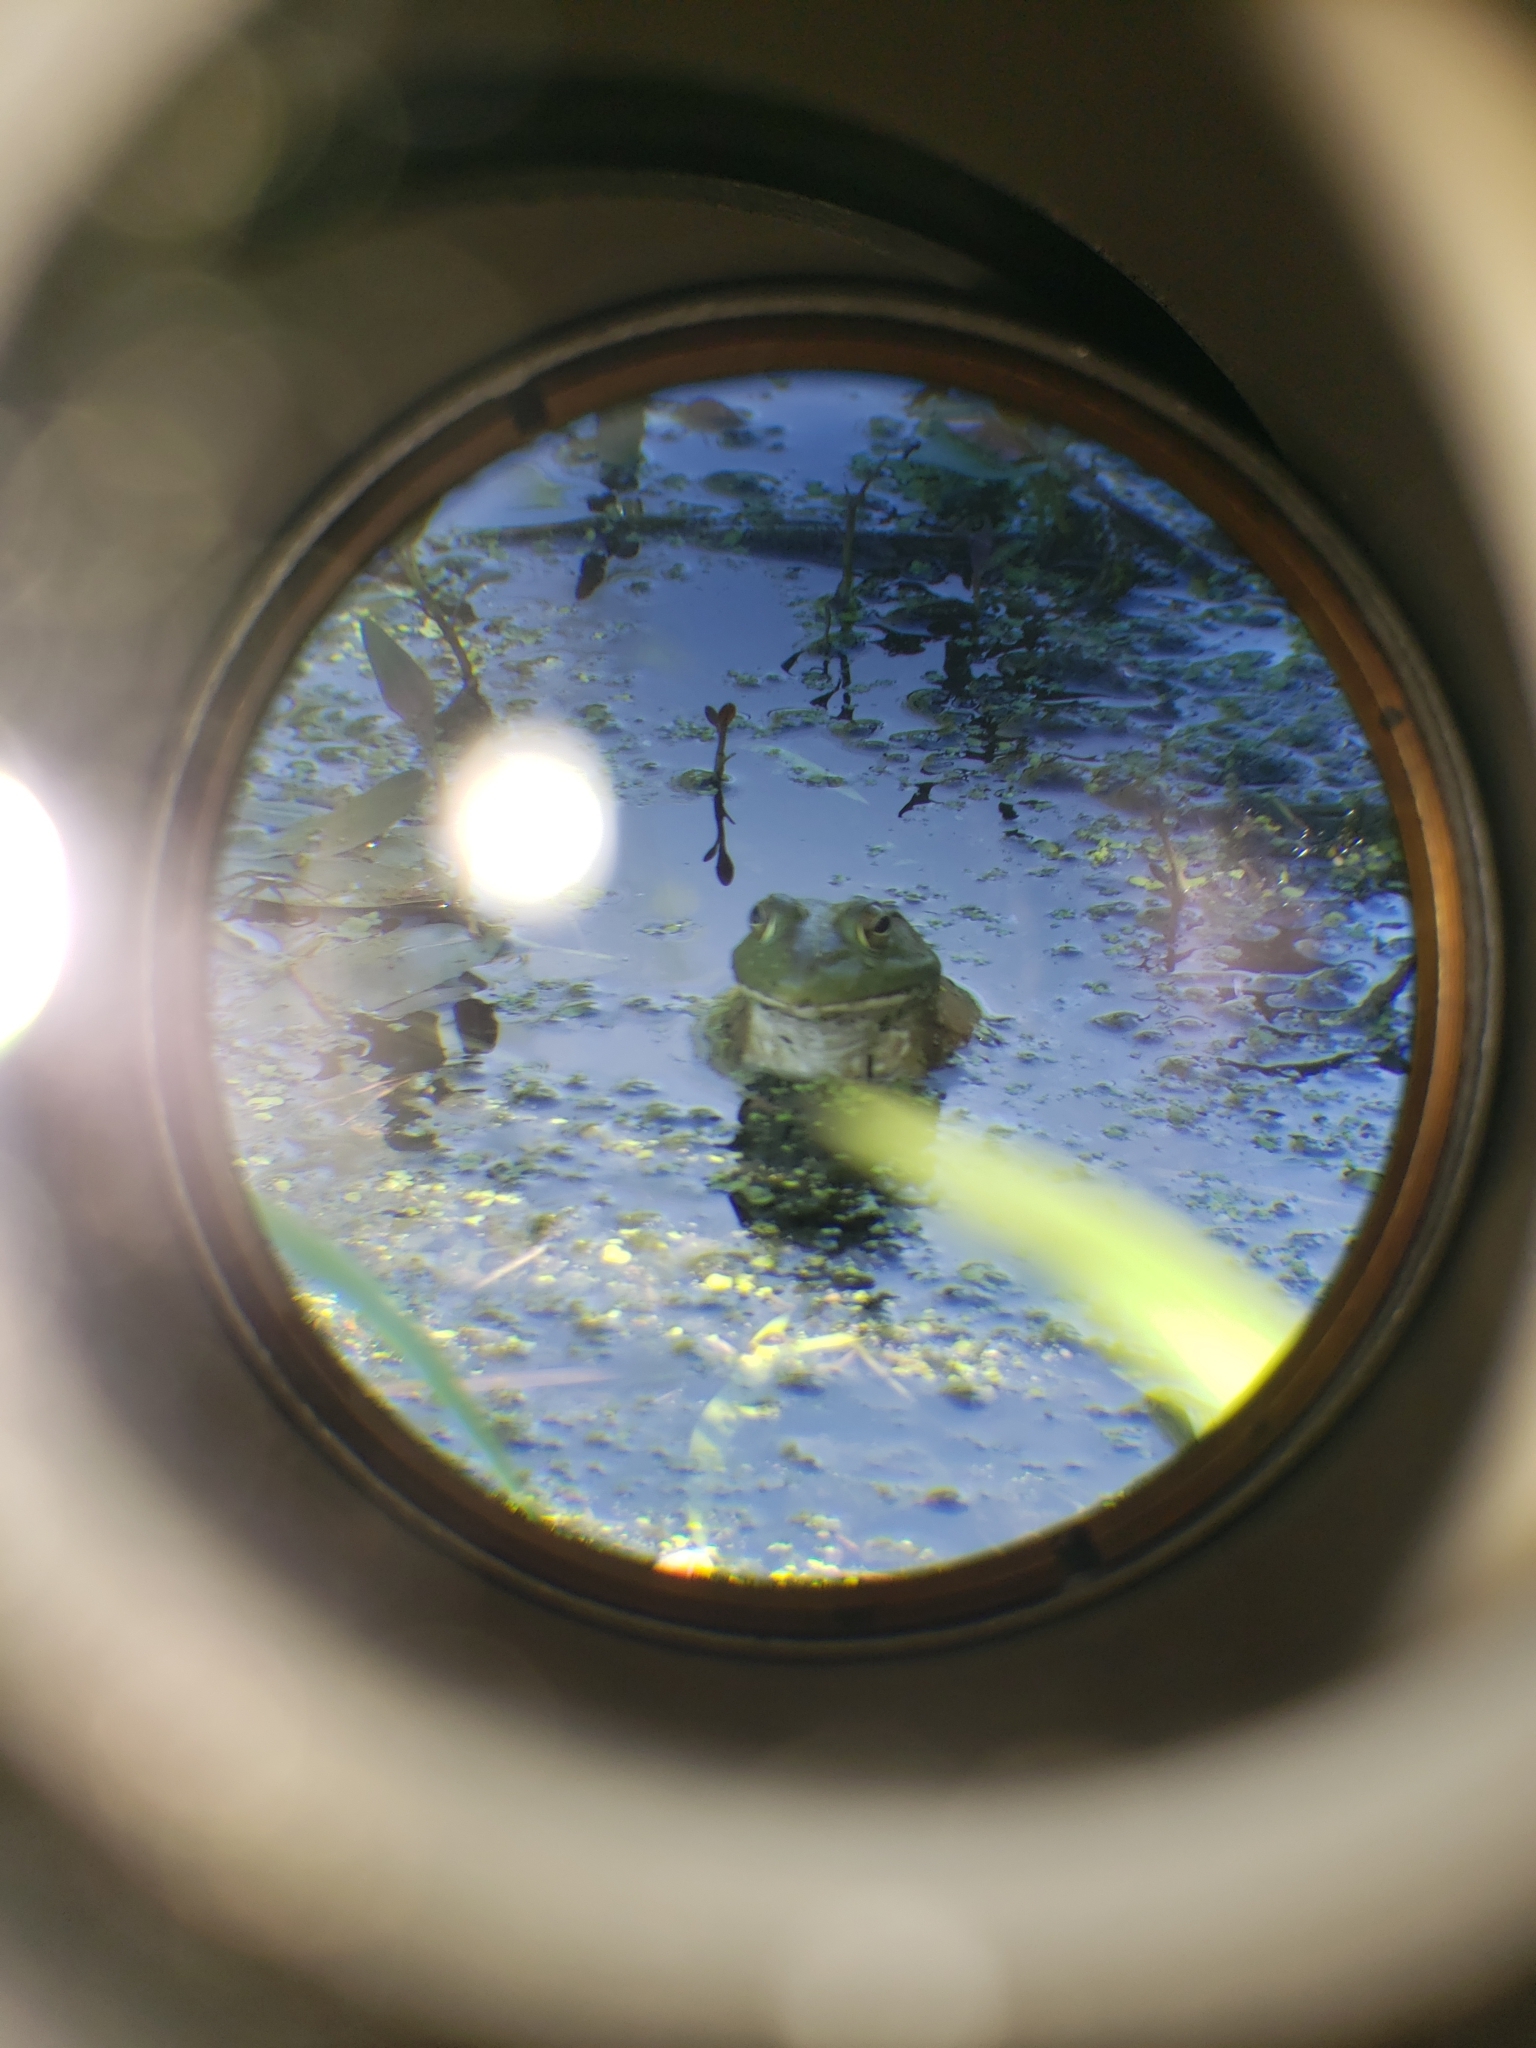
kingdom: Animalia
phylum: Chordata
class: Amphibia
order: Anura
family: Ranidae
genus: Lithobates
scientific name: Lithobates catesbeianus
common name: American bullfrog
